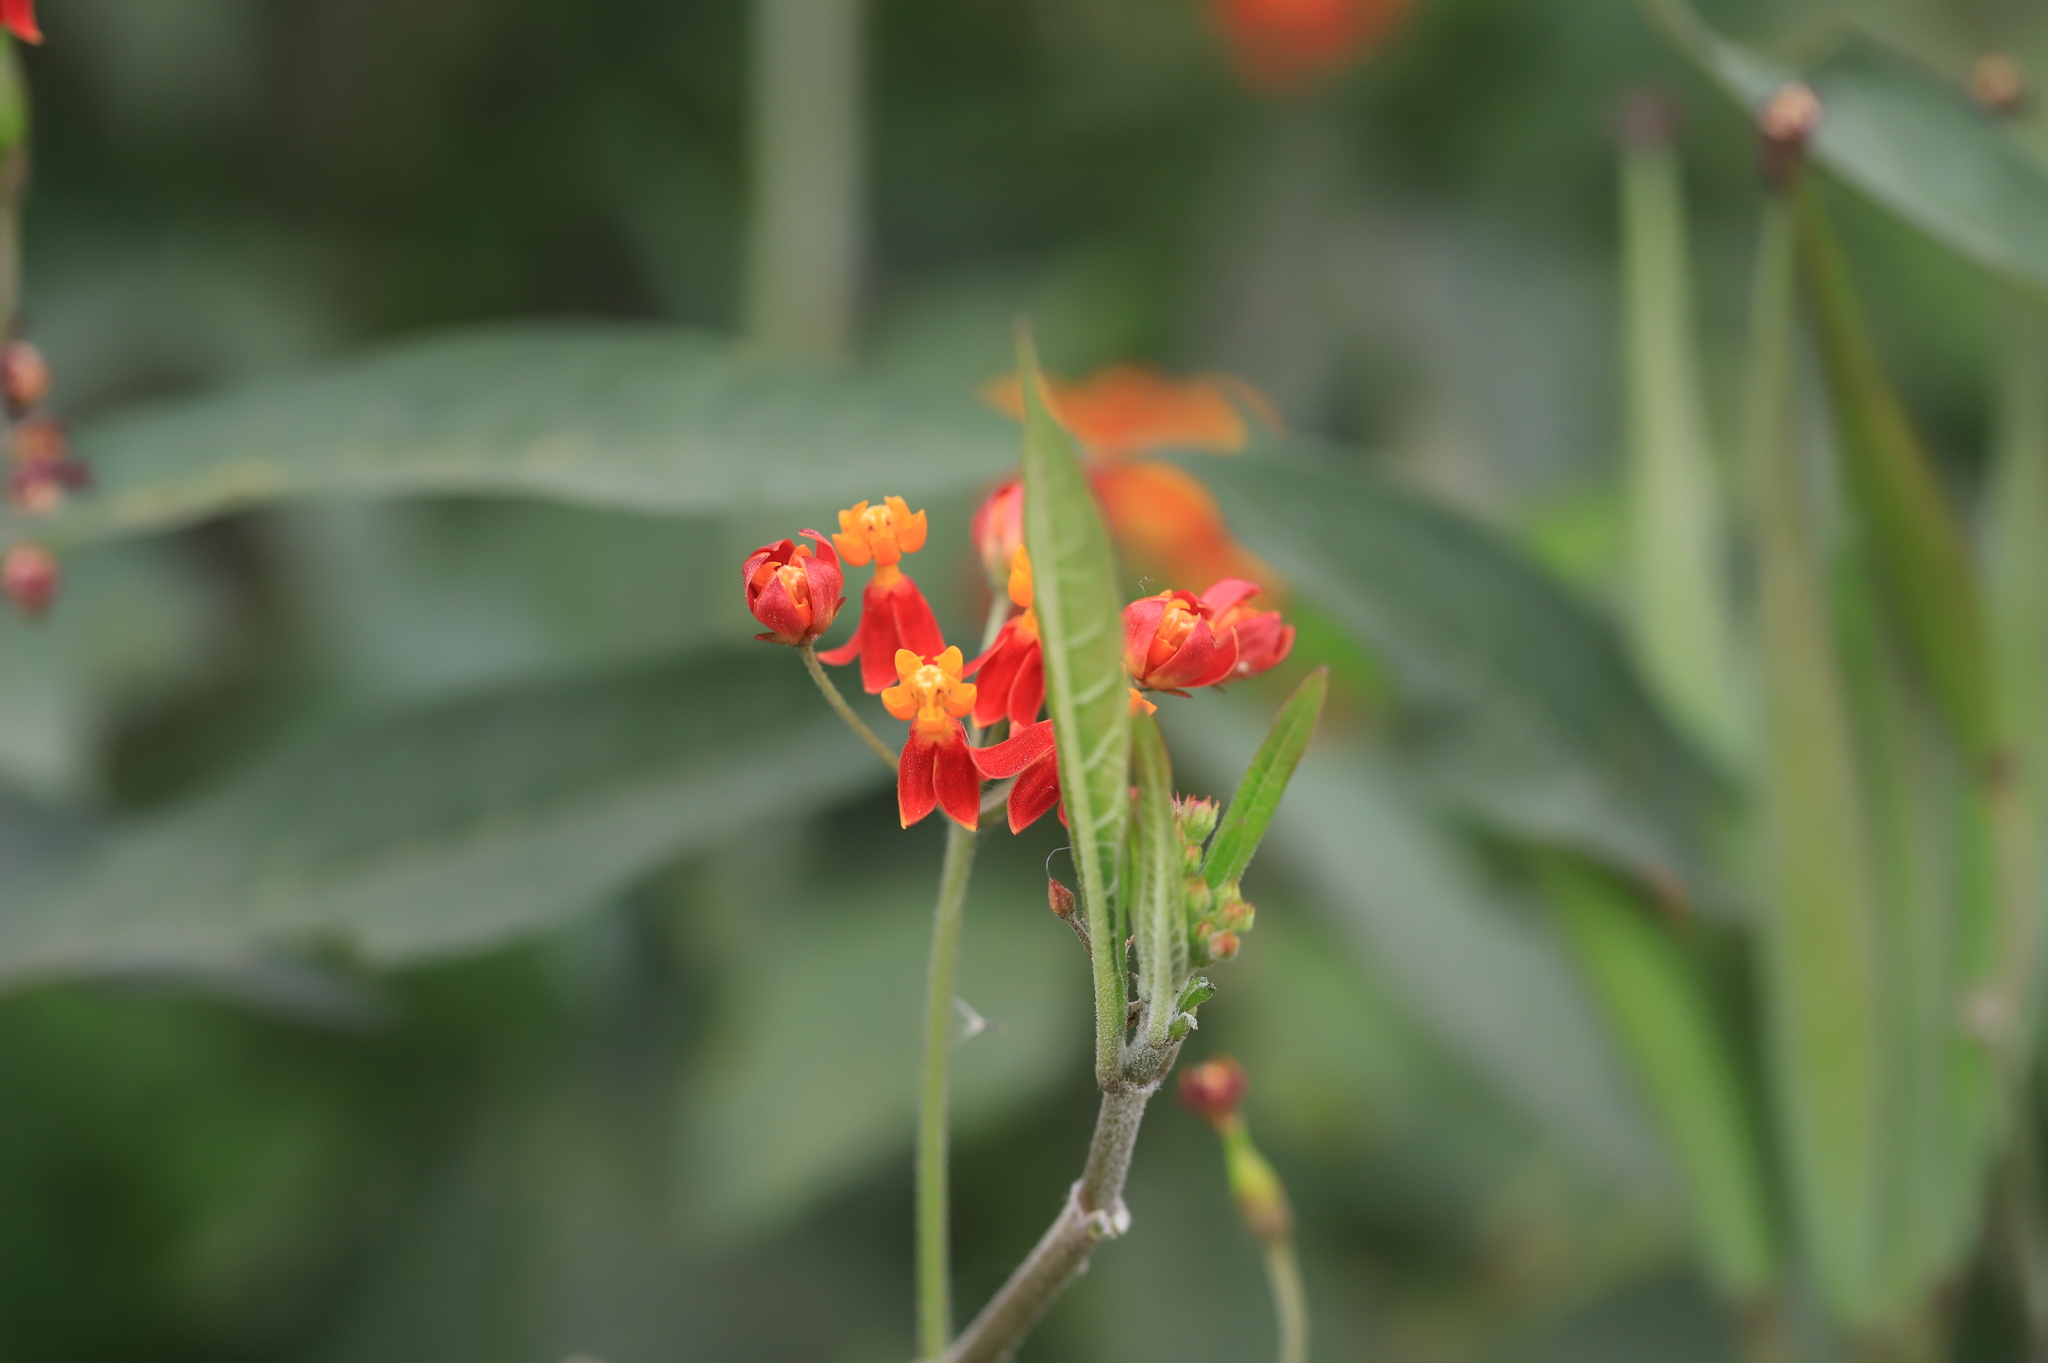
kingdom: Plantae
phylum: Tracheophyta
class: Magnoliopsida
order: Gentianales
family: Apocynaceae
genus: Asclepias
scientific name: Asclepias curassavica
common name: Bloodflower
